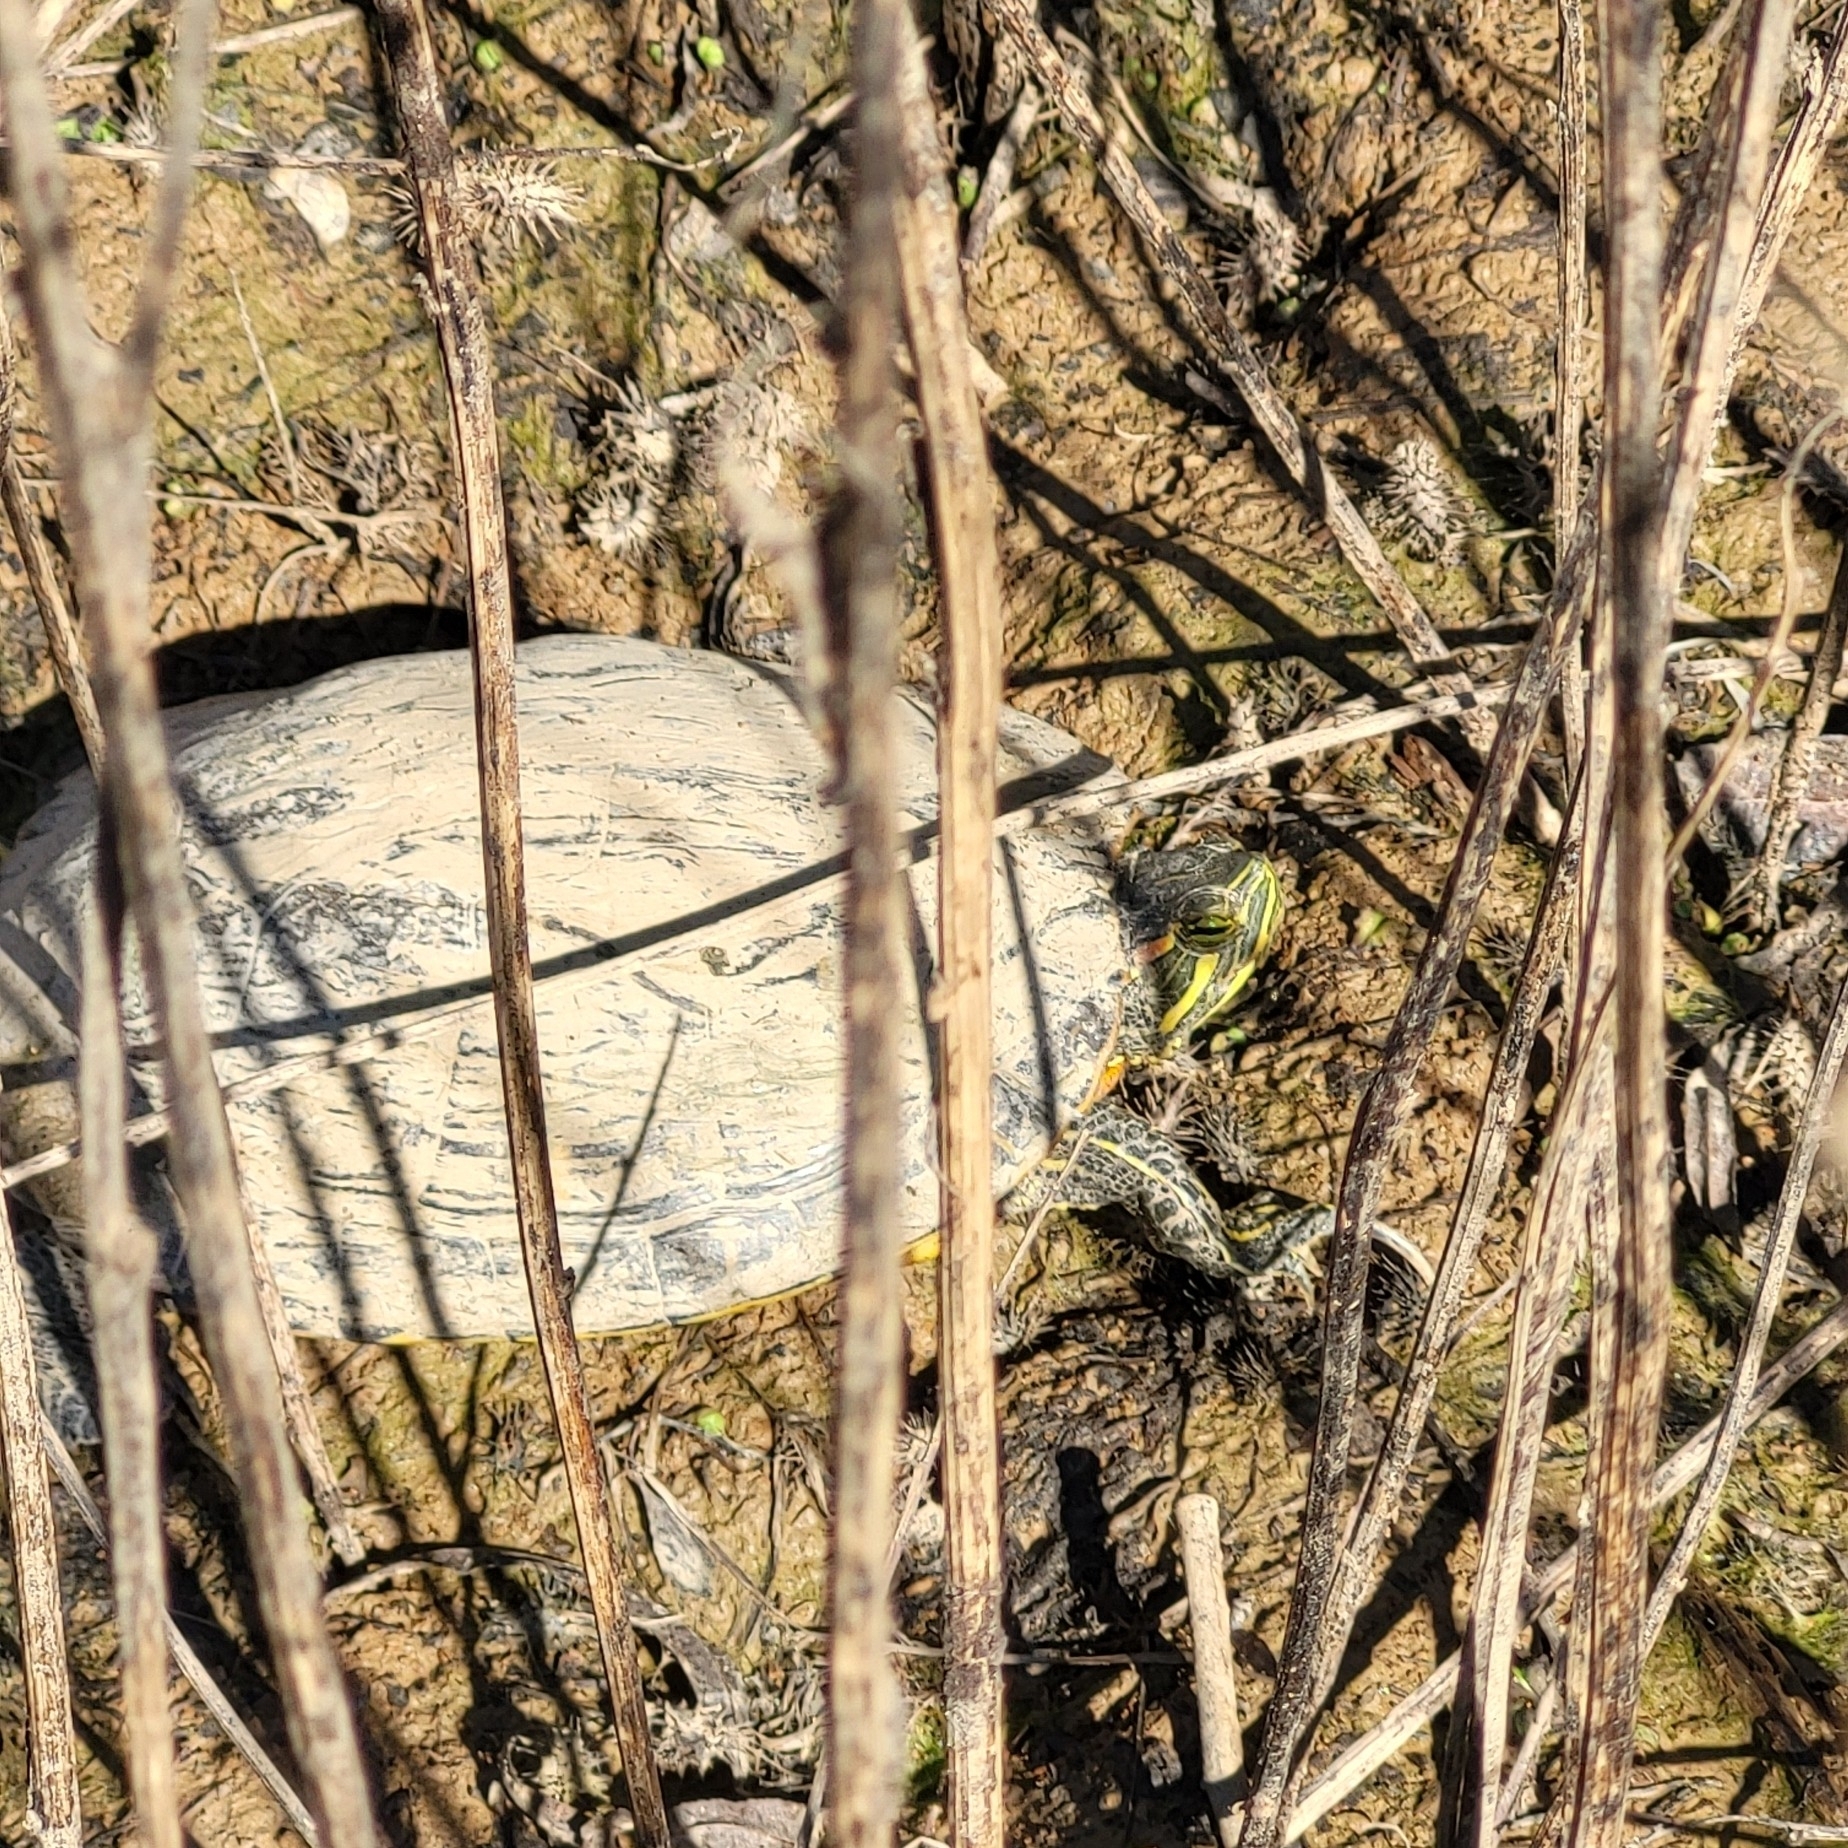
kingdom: Animalia
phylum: Chordata
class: Testudines
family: Emydidae
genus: Trachemys
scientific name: Trachemys scripta
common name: Slider
